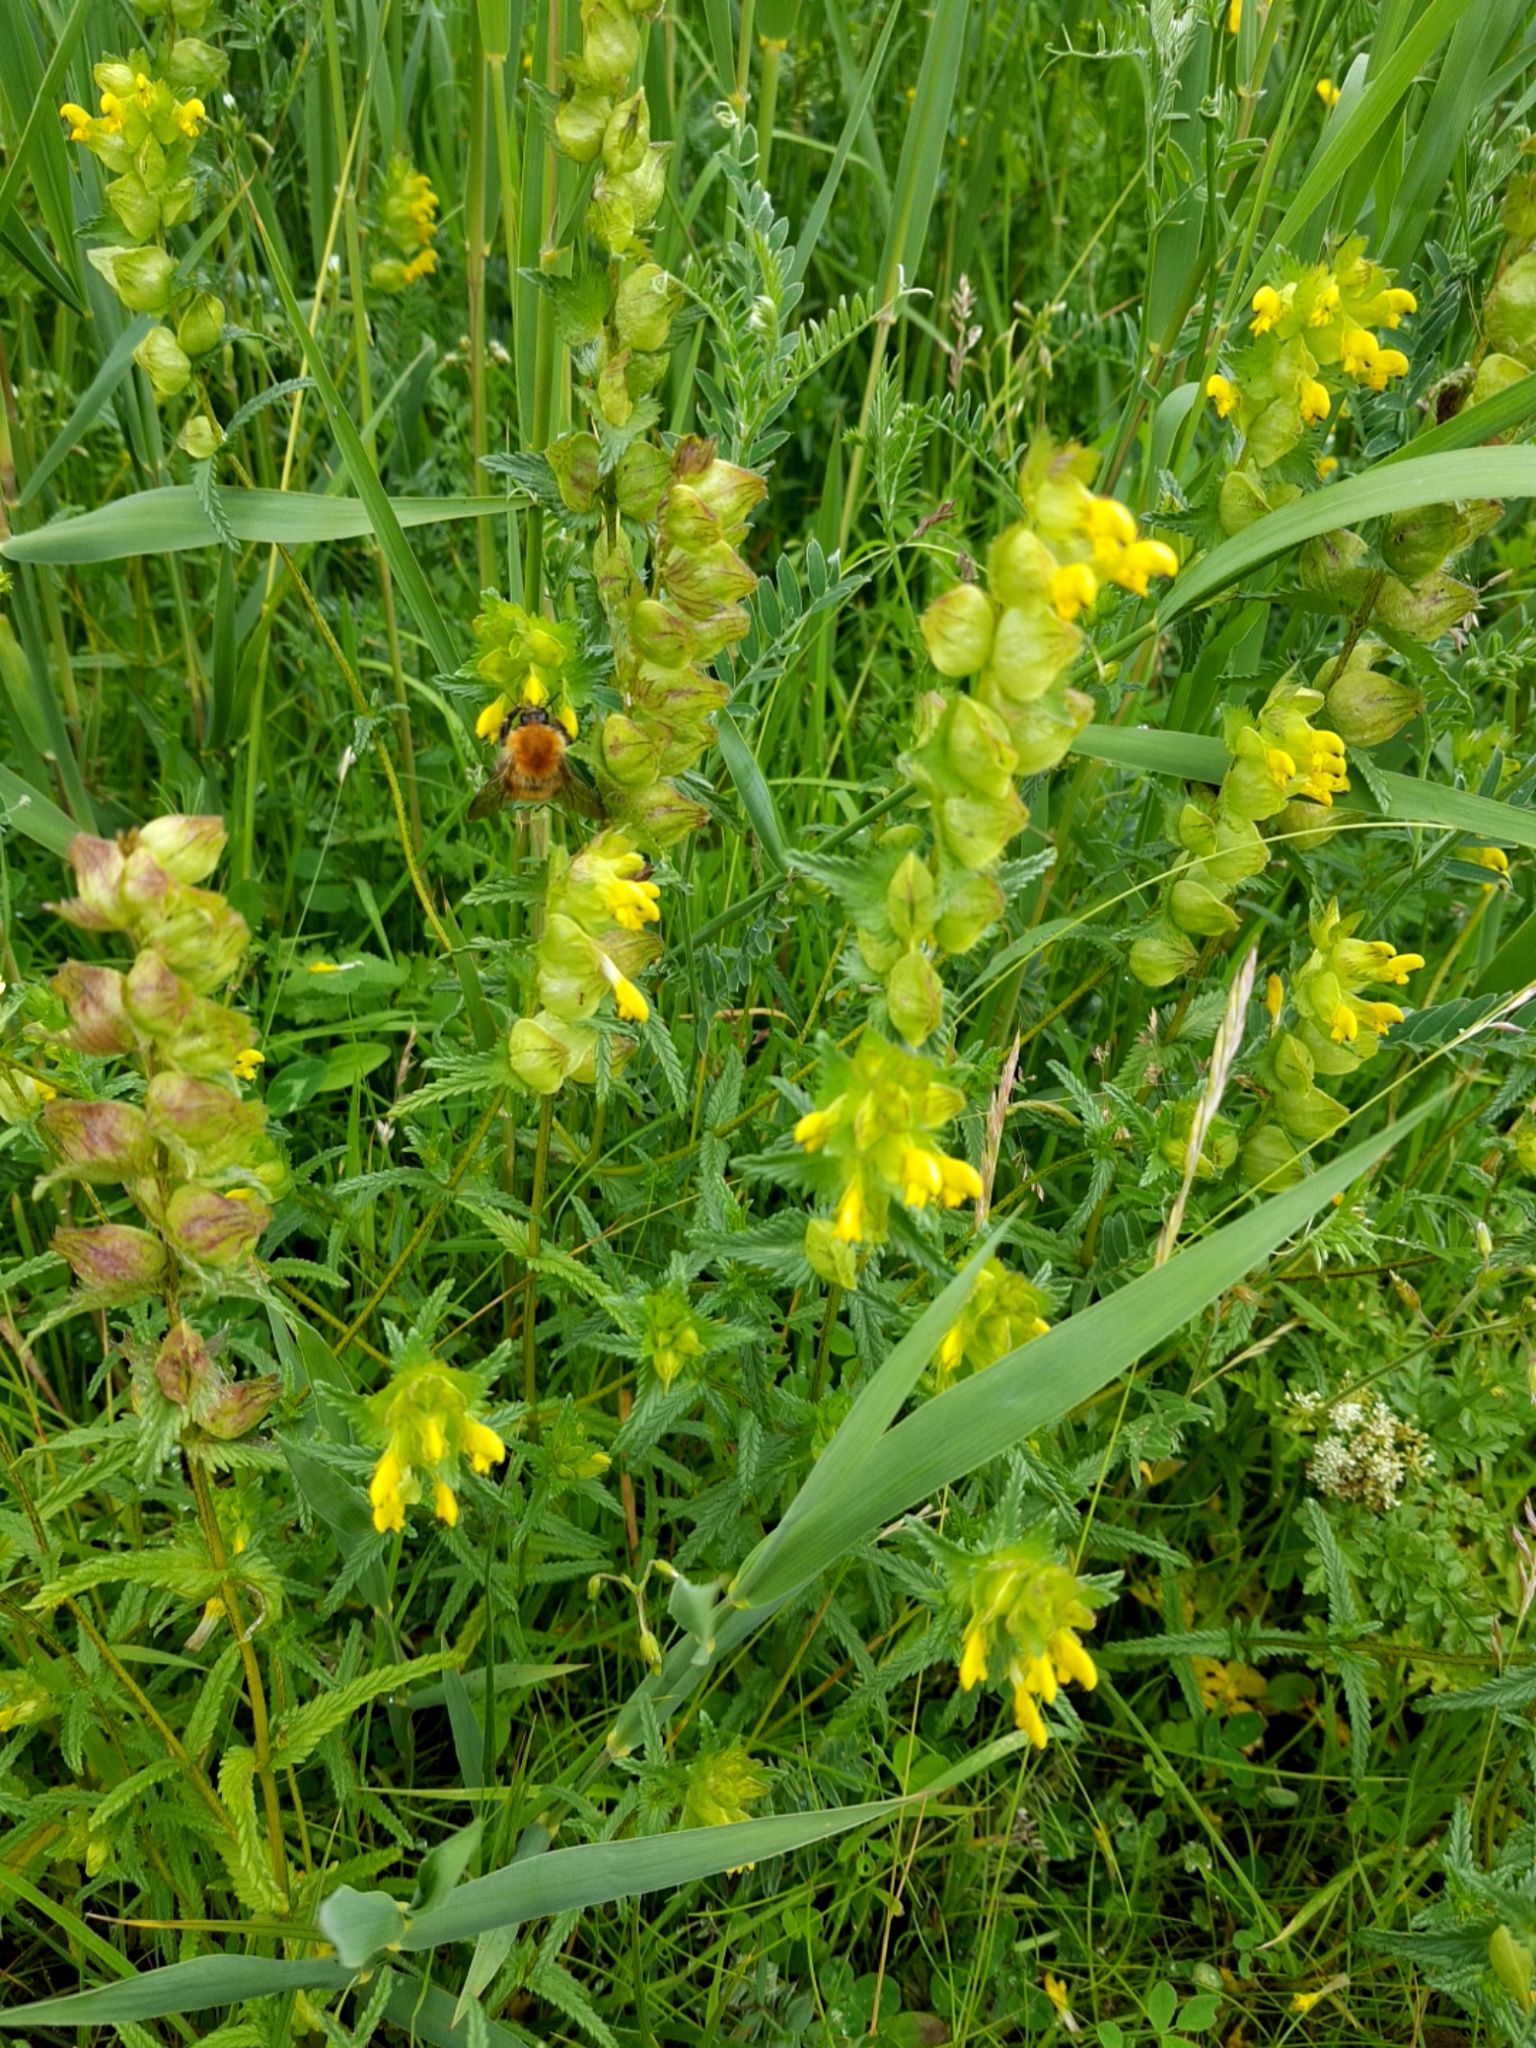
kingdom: Plantae
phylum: Tracheophyta
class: Magnoliopsida
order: Lamiales
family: Orobanchaceae
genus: Rhinanthus
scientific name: Rhinanthus minor
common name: Yellow-rattle
